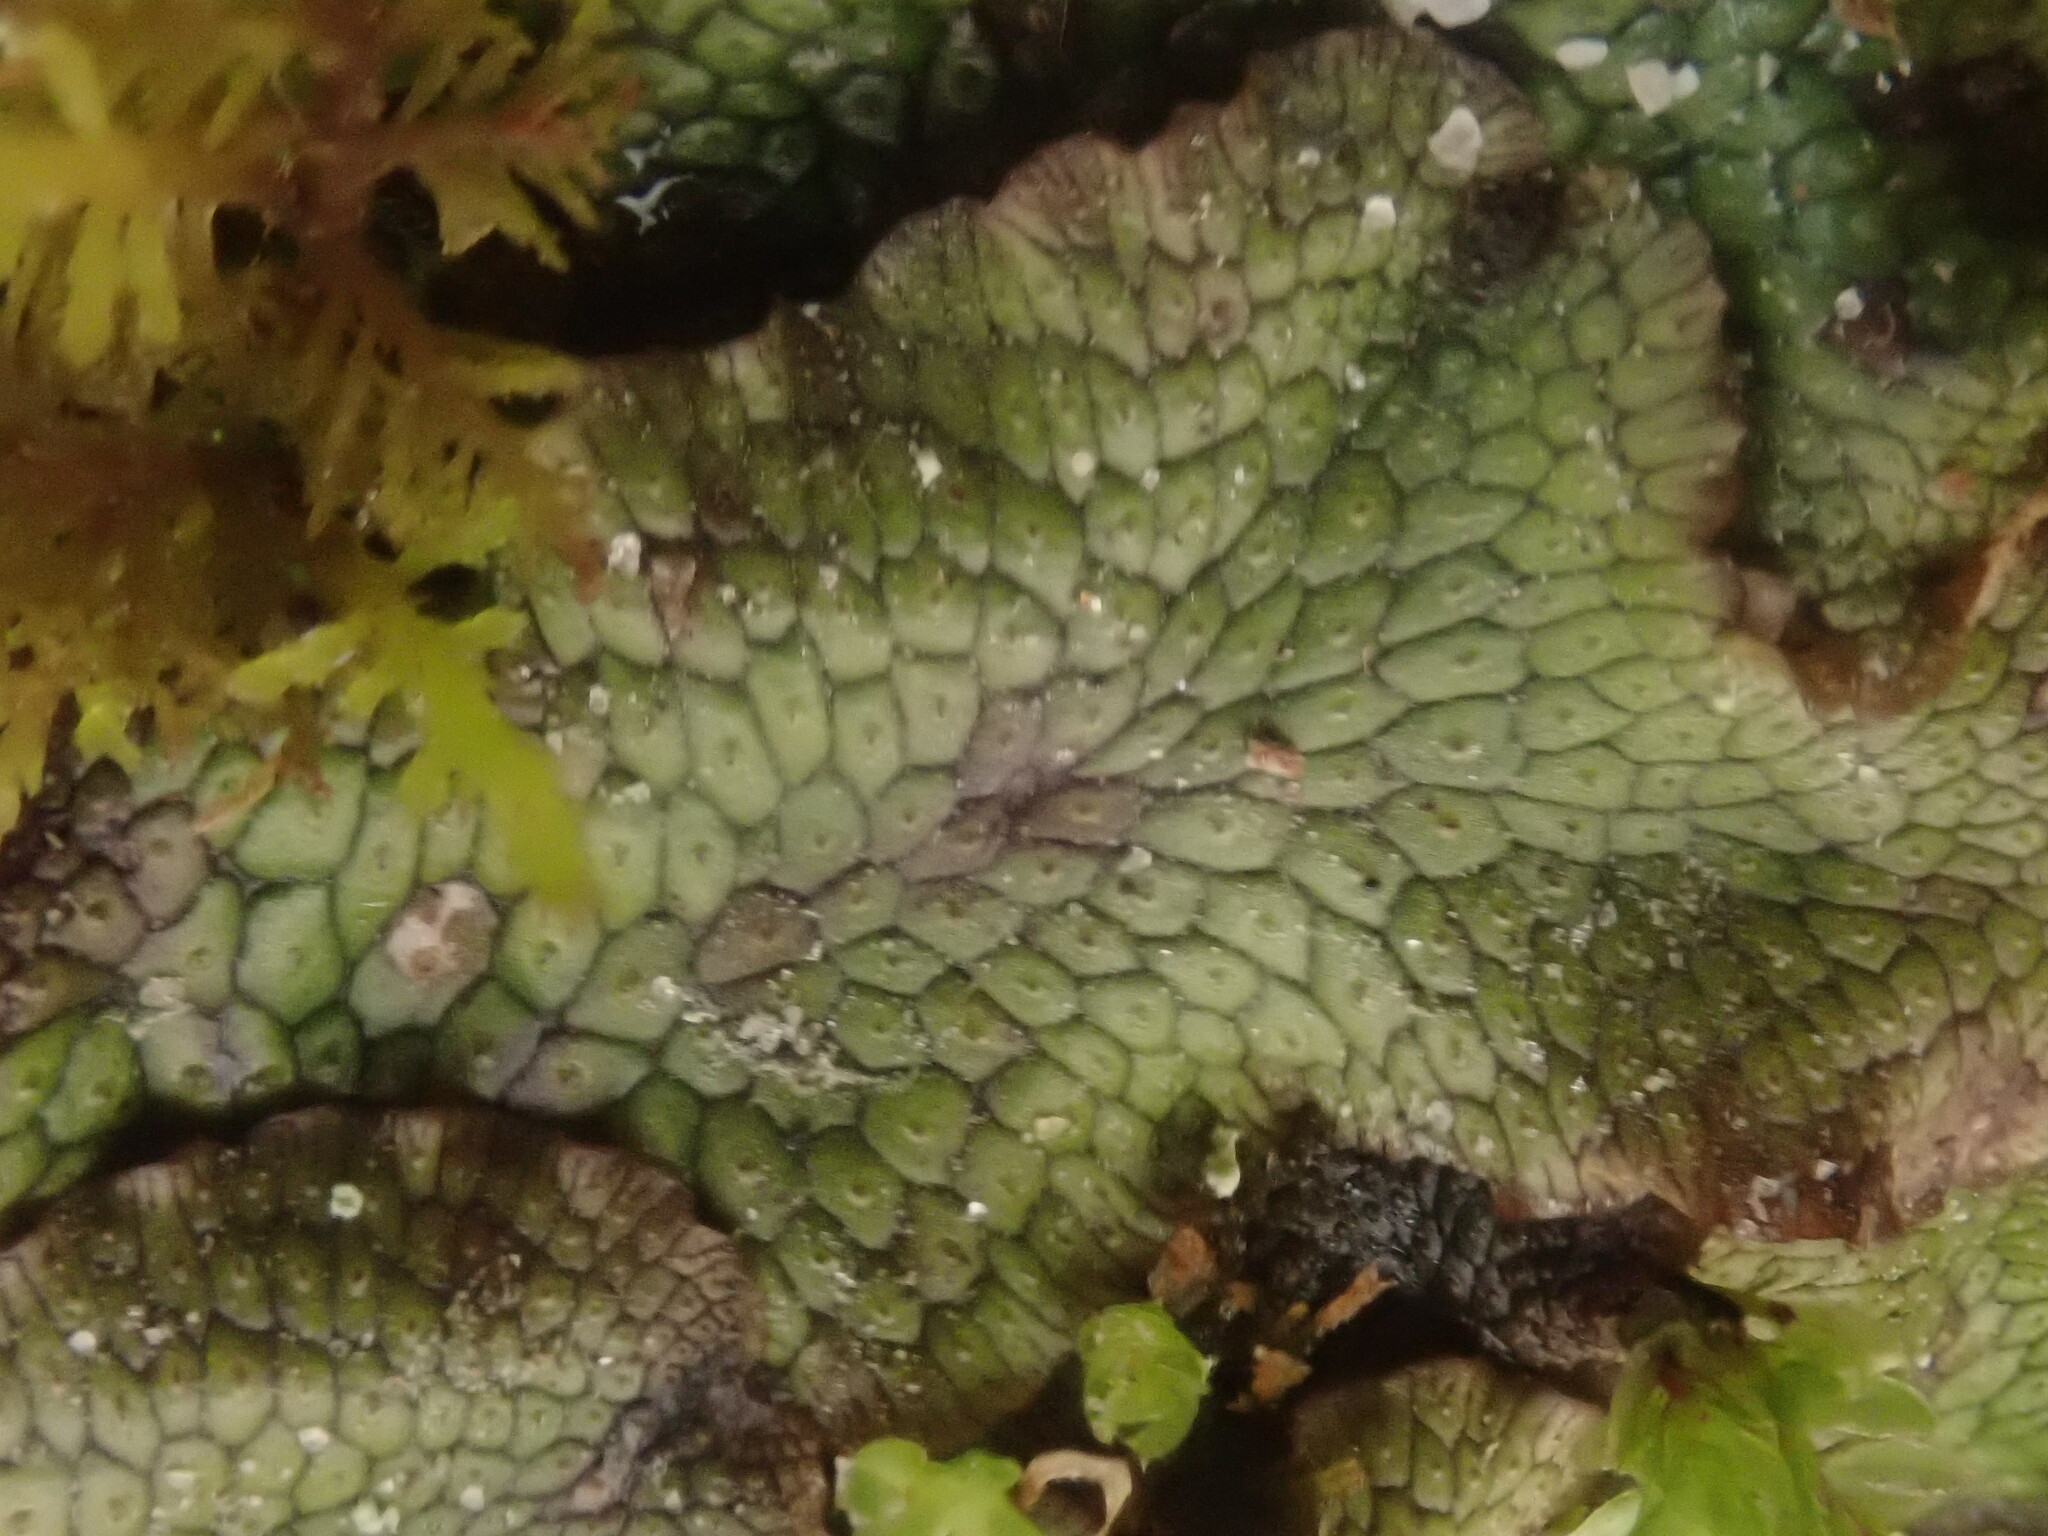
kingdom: Plantae
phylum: Marchantiophyta
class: Marchantiopsida
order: Marchantiales
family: Conocephalaceae
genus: Conocephalum
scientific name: Conocephalum salebrosum
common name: Cat-tongue liverwort
